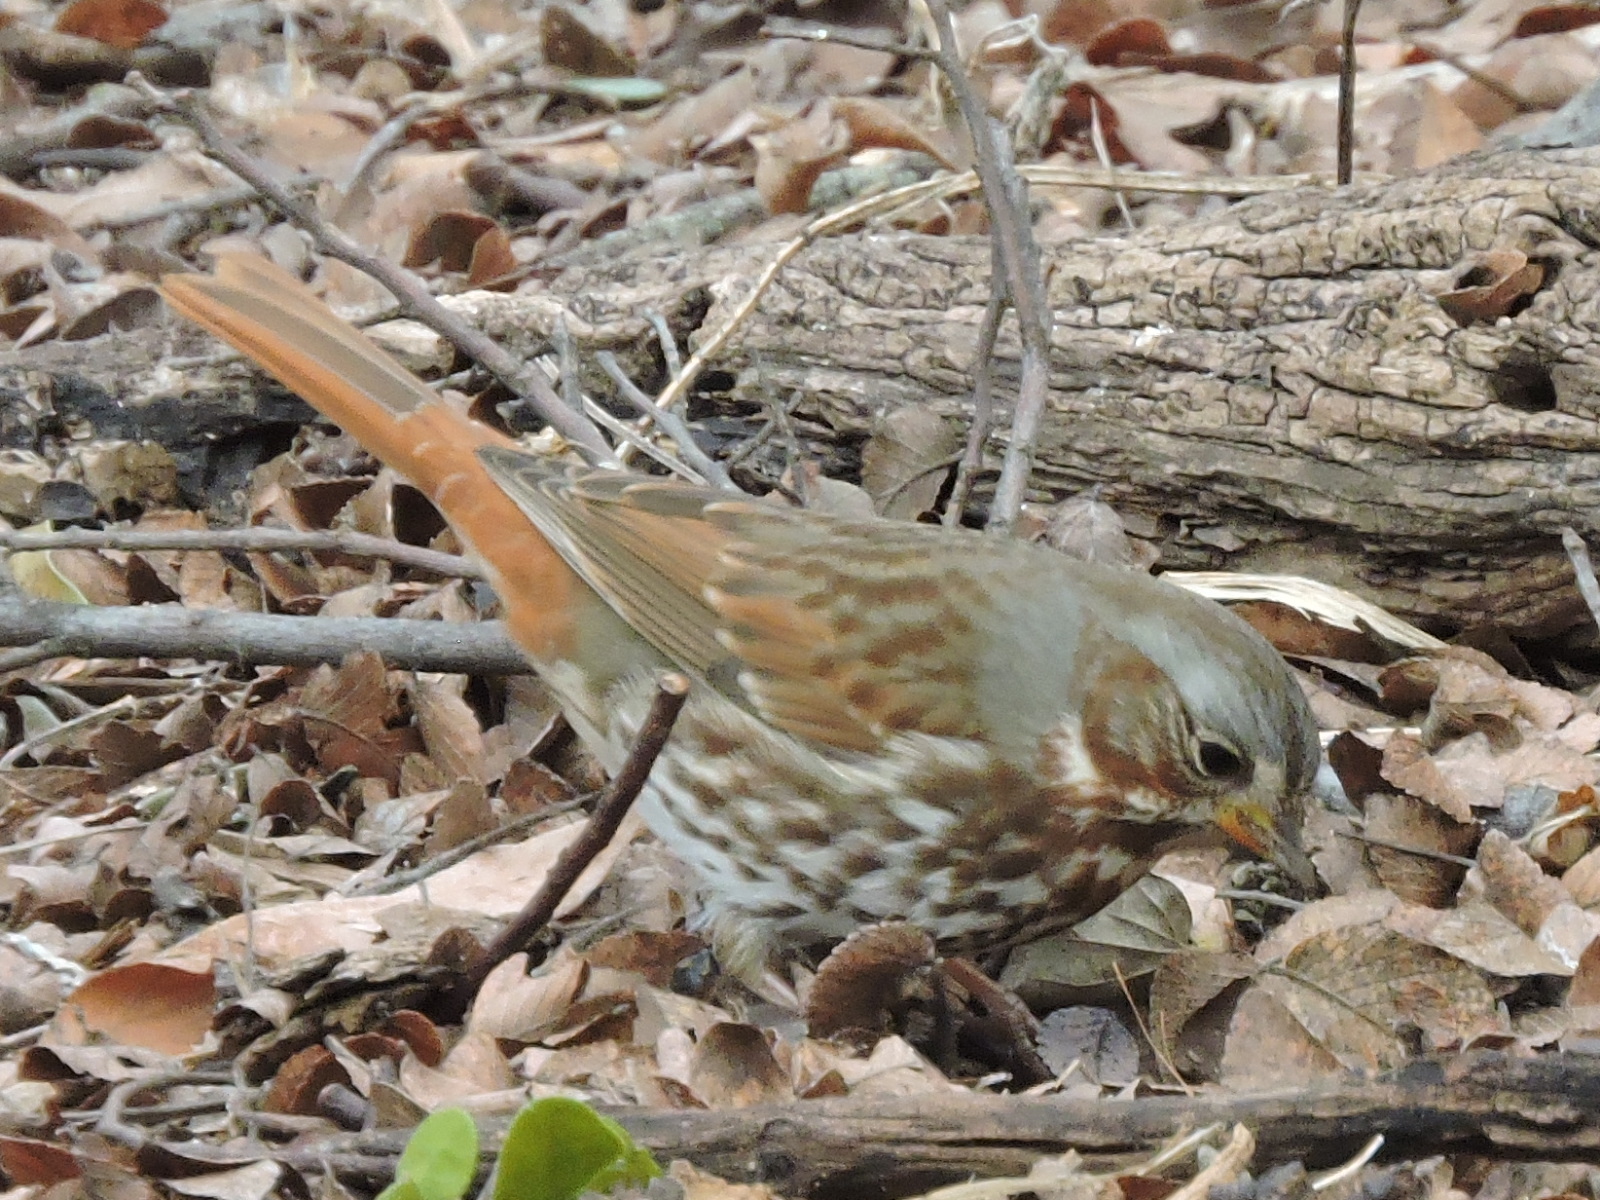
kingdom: Animalia
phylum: Chordata
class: Aves
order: Passeriformes
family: Passerellidae
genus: Passerella
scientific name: Passerella iliaca
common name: Fox sparrow
